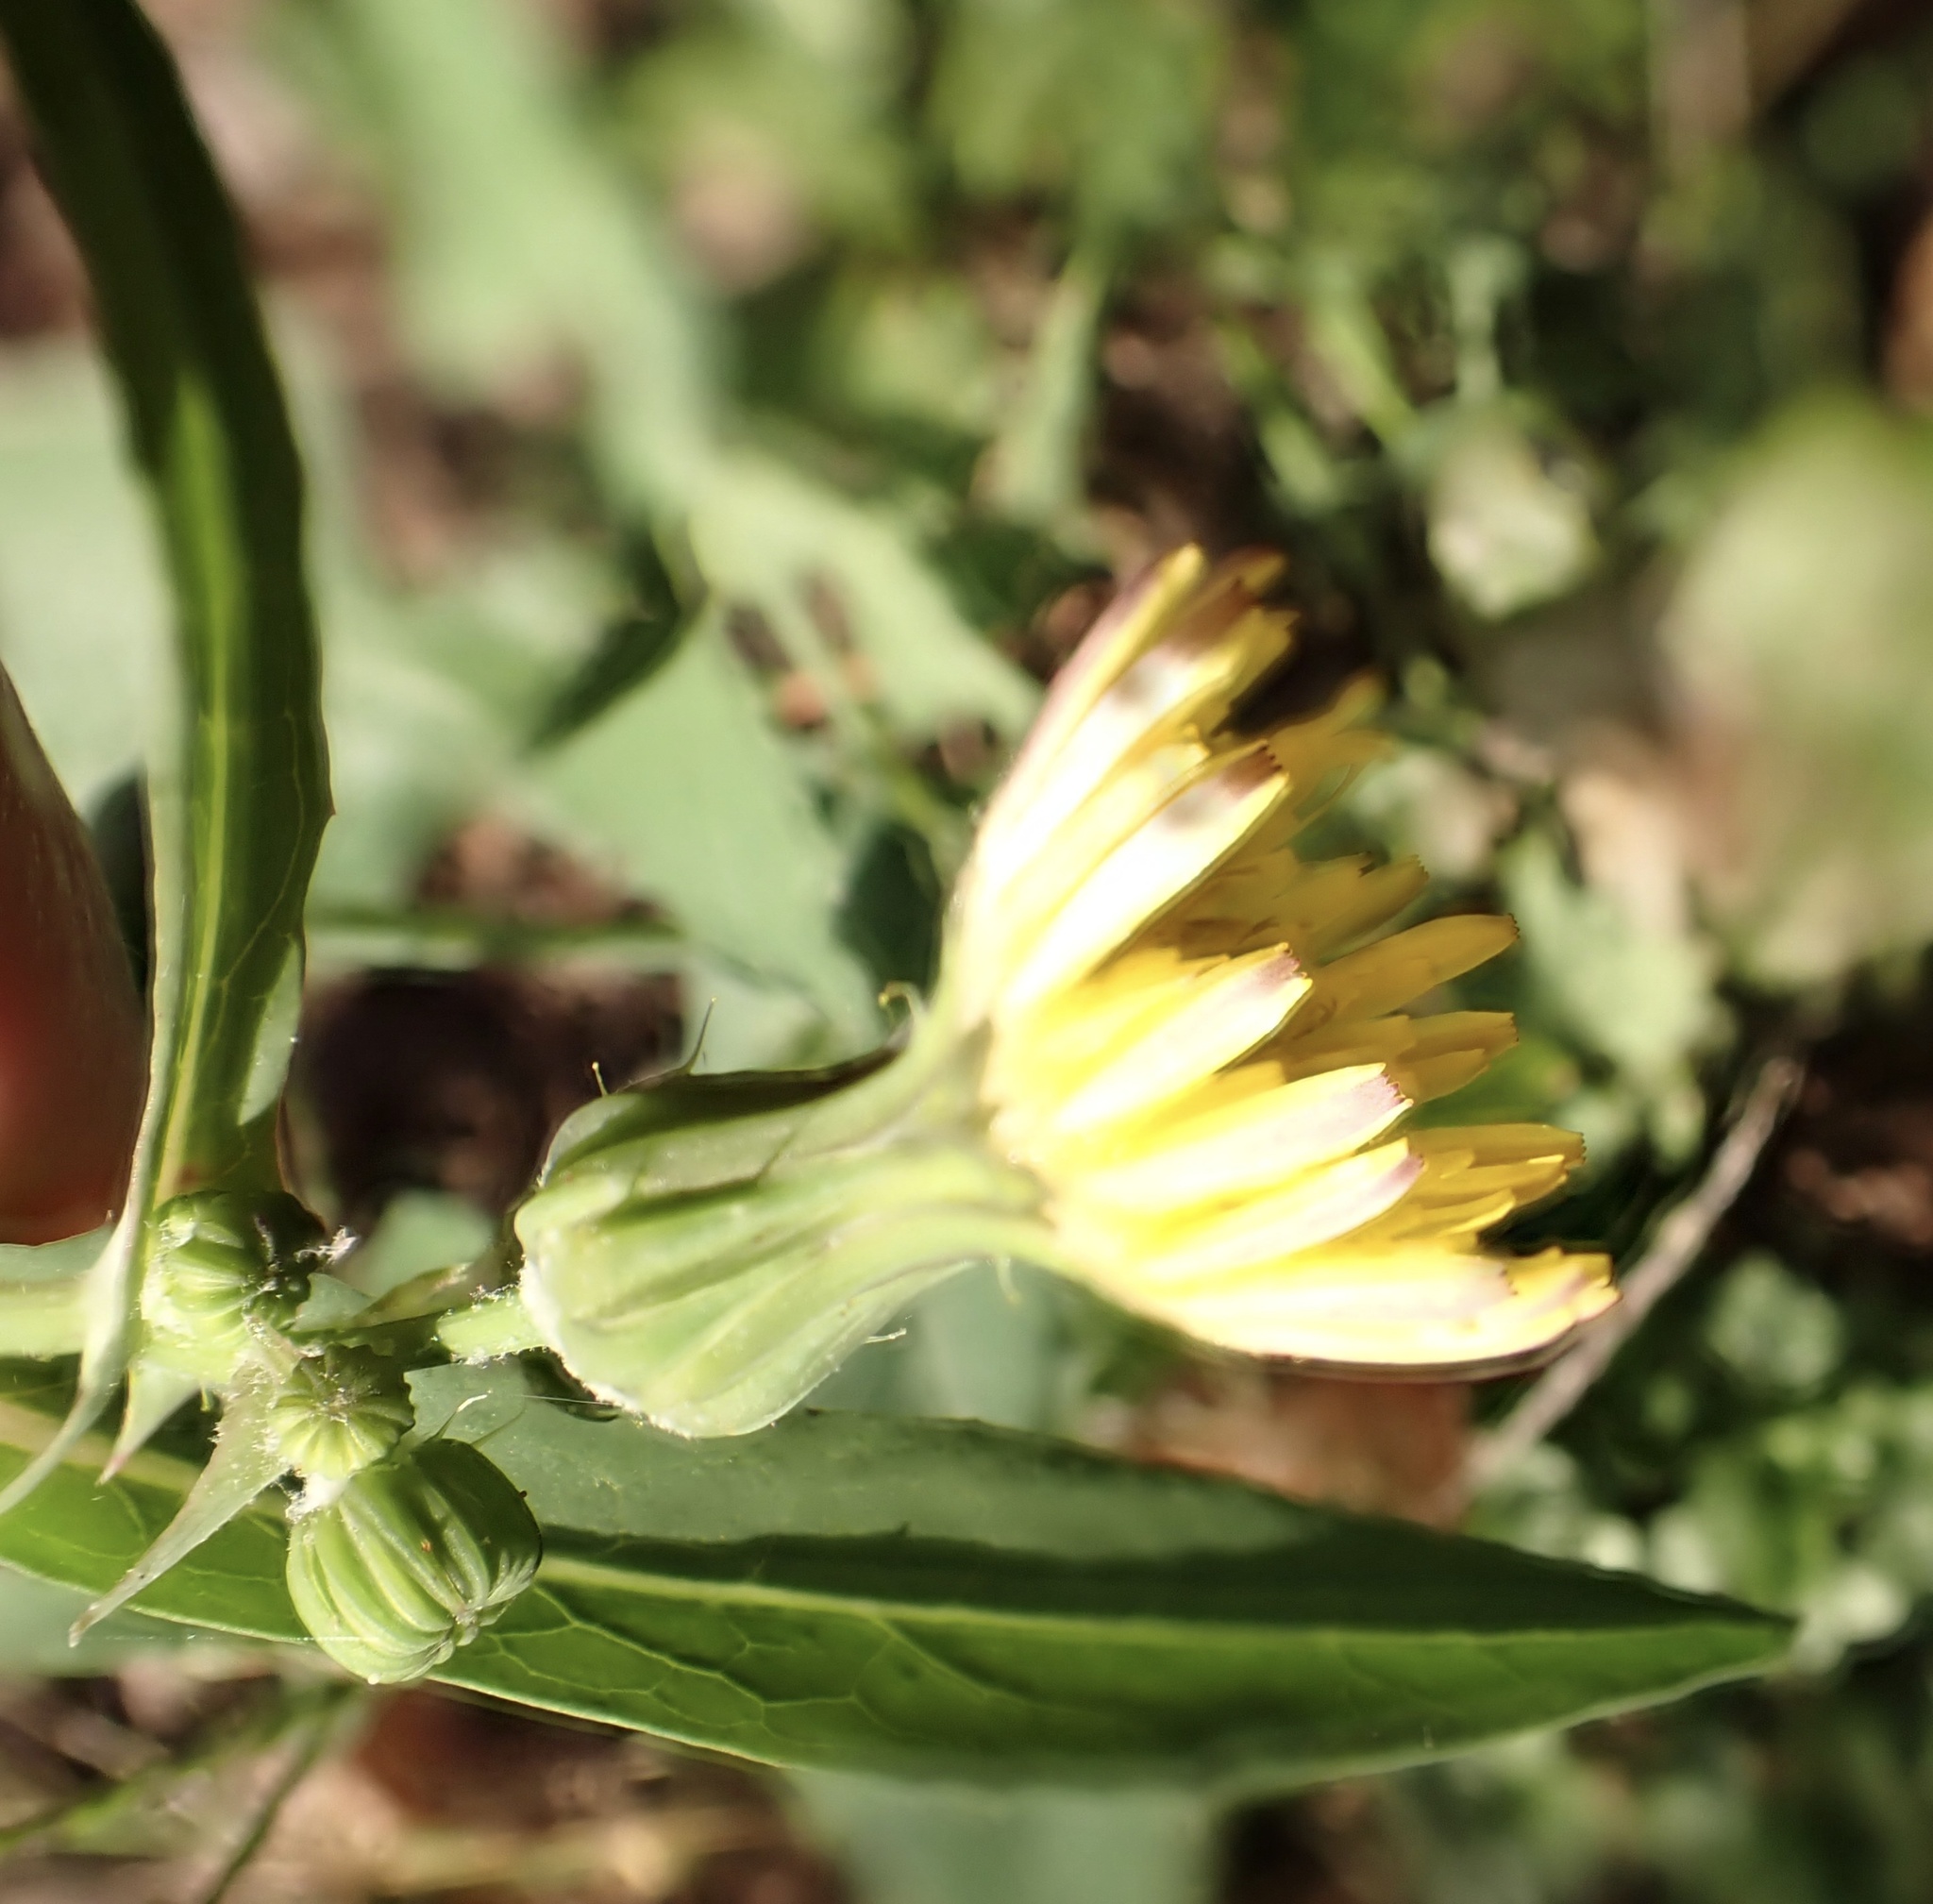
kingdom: Plantae
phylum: Tracheophyta
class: Magnoliopsida
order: Asterales
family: Asteraceae
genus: Sonchus
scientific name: Sonchus oleraceus
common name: Common sowthistle
